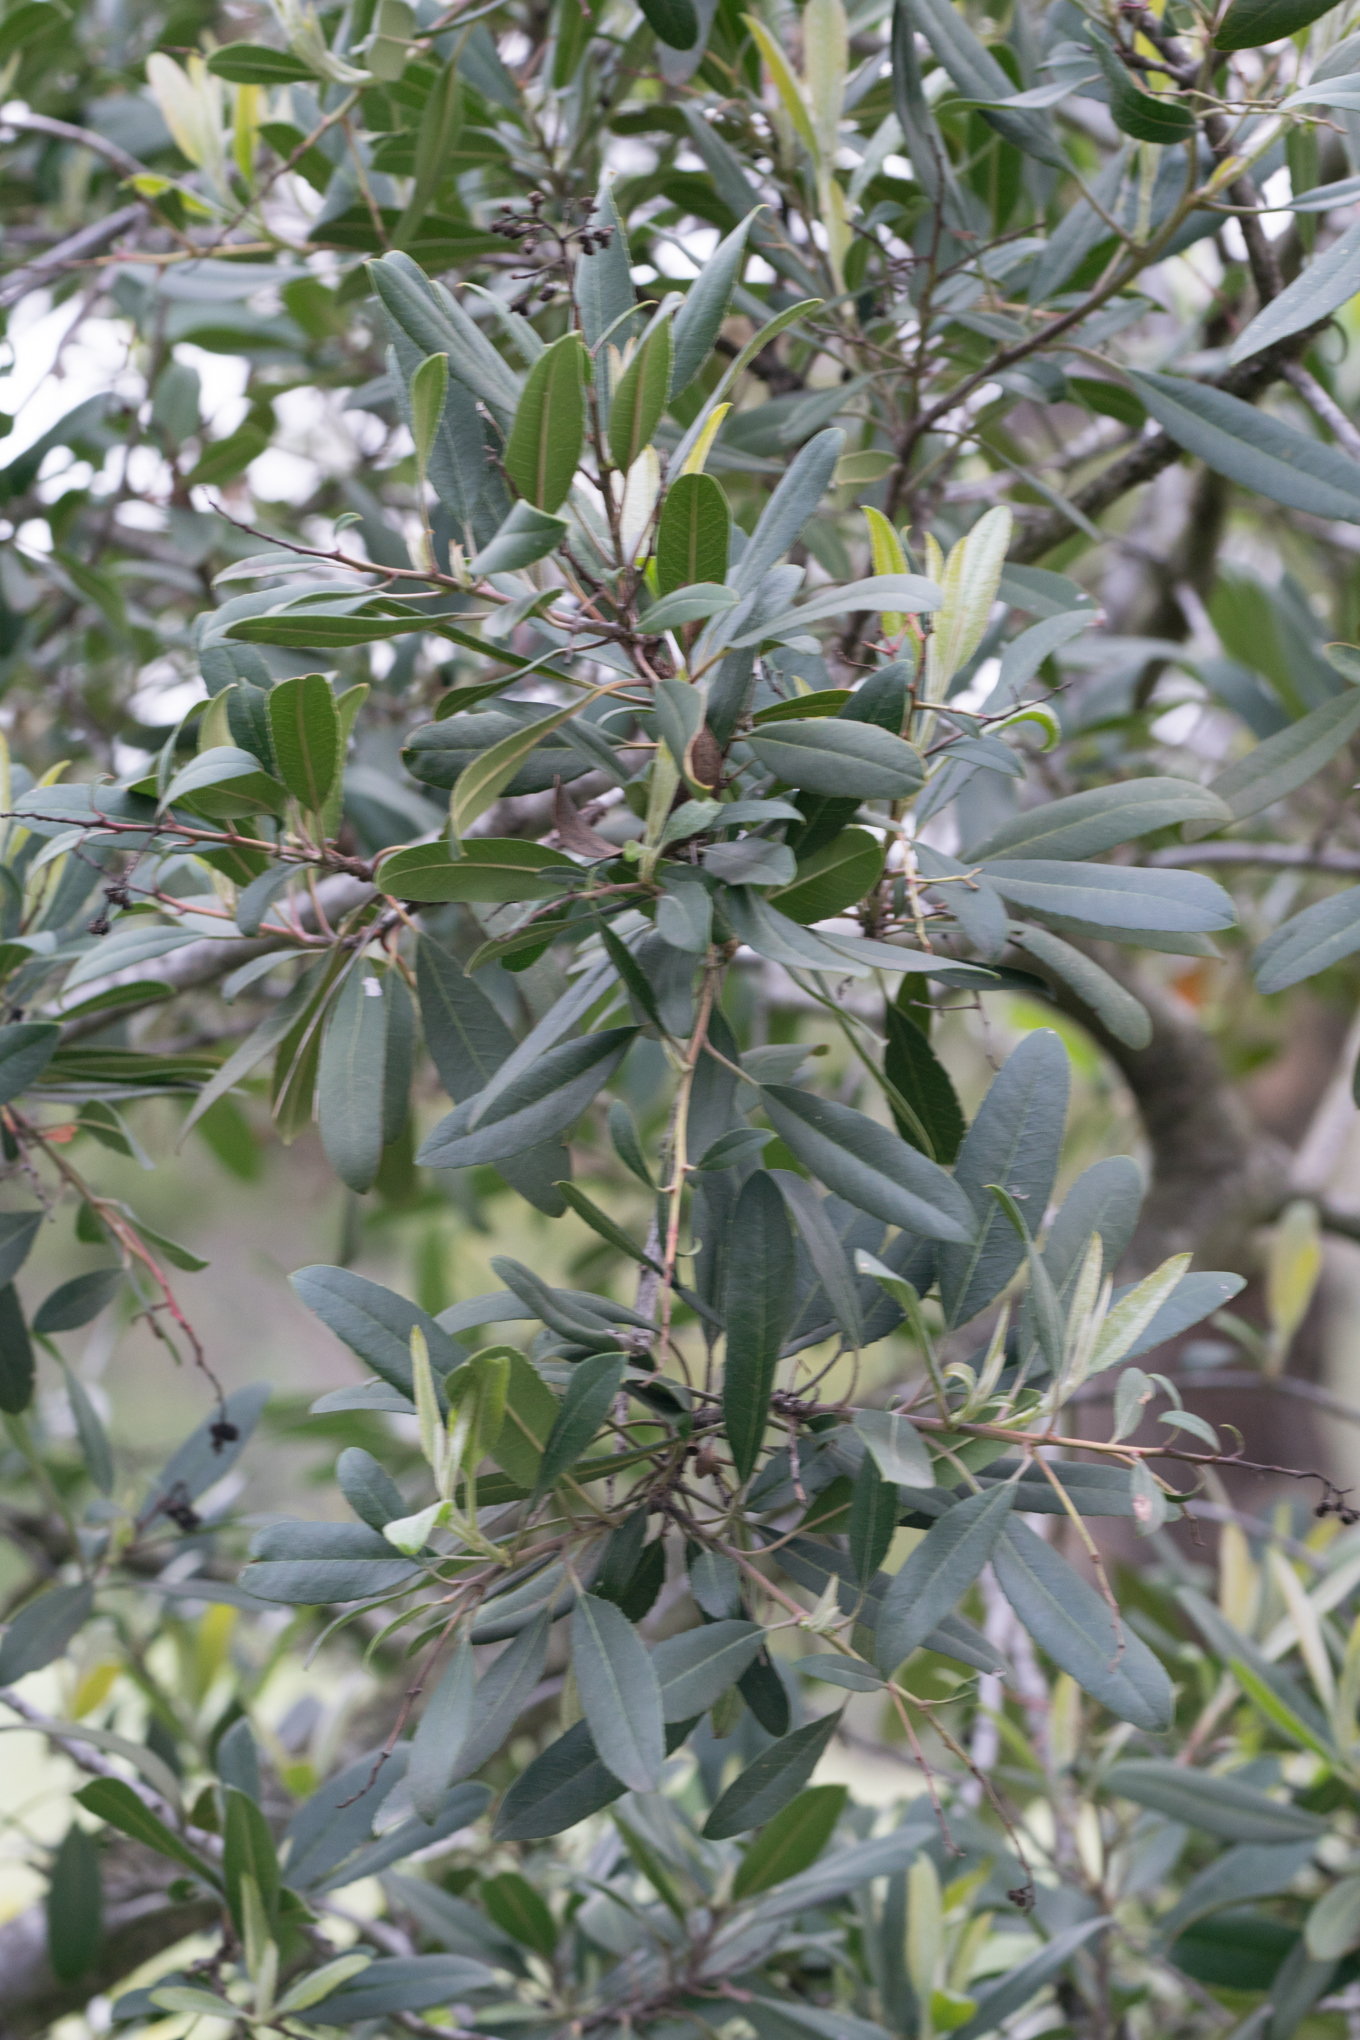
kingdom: Plantae
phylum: Tracheophyta
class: Magnoliopsida
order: Rosales
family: Rosaceae
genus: Heteromeles
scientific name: Heteromeles arbutifolia
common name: California-holly
